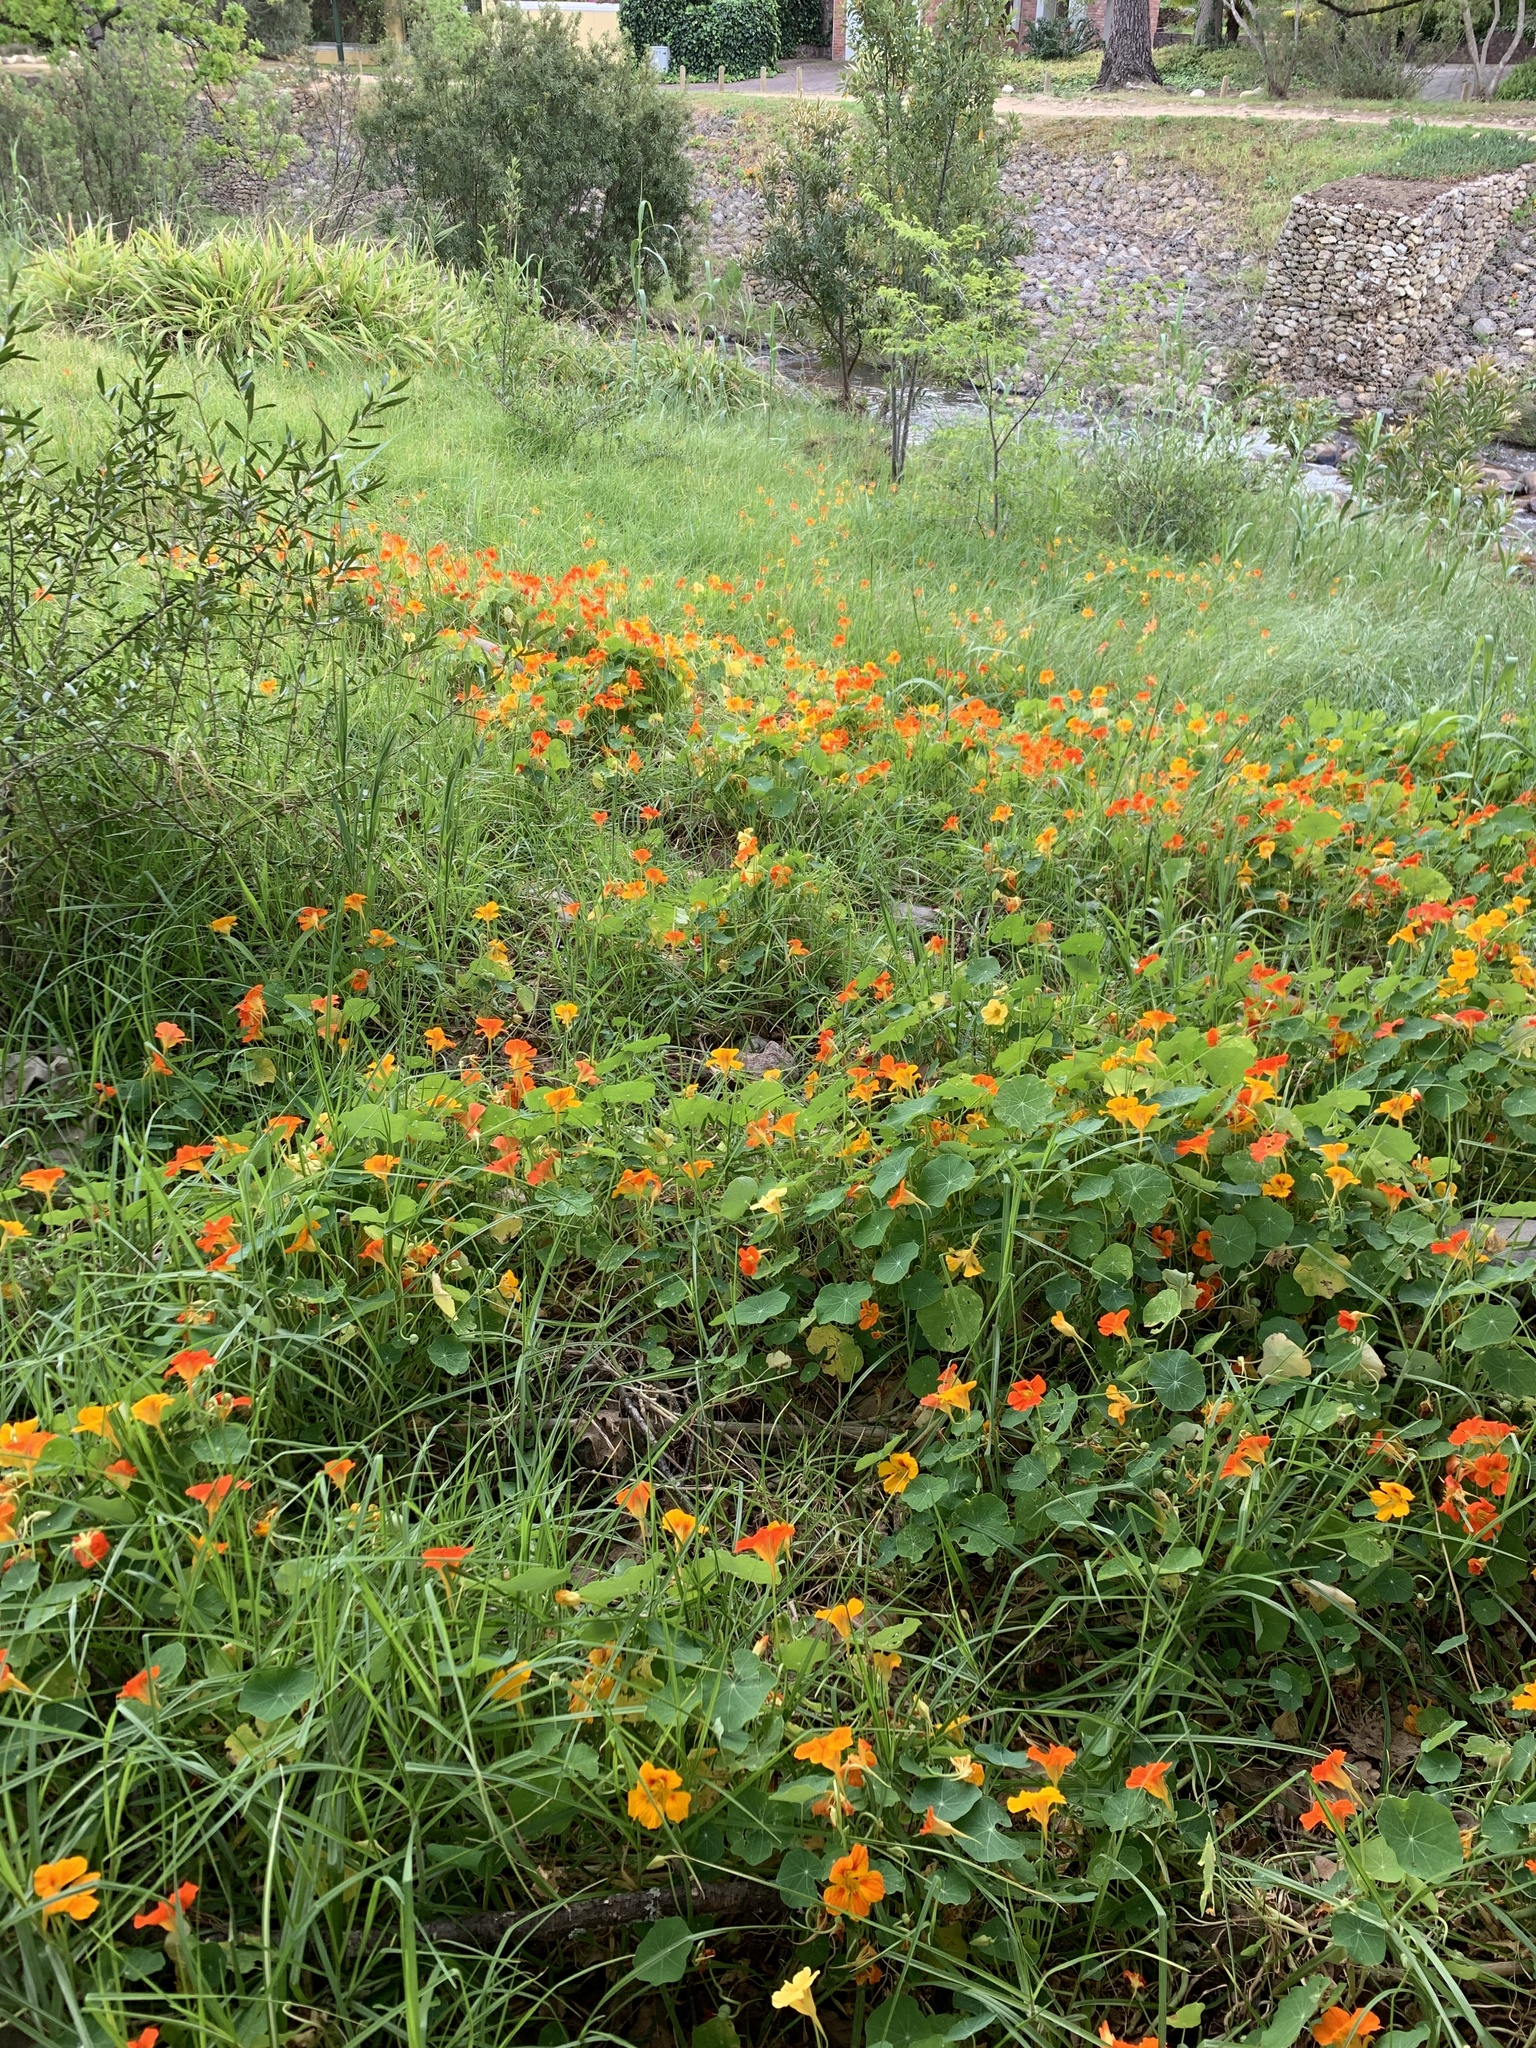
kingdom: Plantae
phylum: Tracheophyta
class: Magnoliopsida
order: Brassicales
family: Tropaeolaceae
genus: Tropaeolum
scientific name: Tropaeolum majus
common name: Nasturtium
